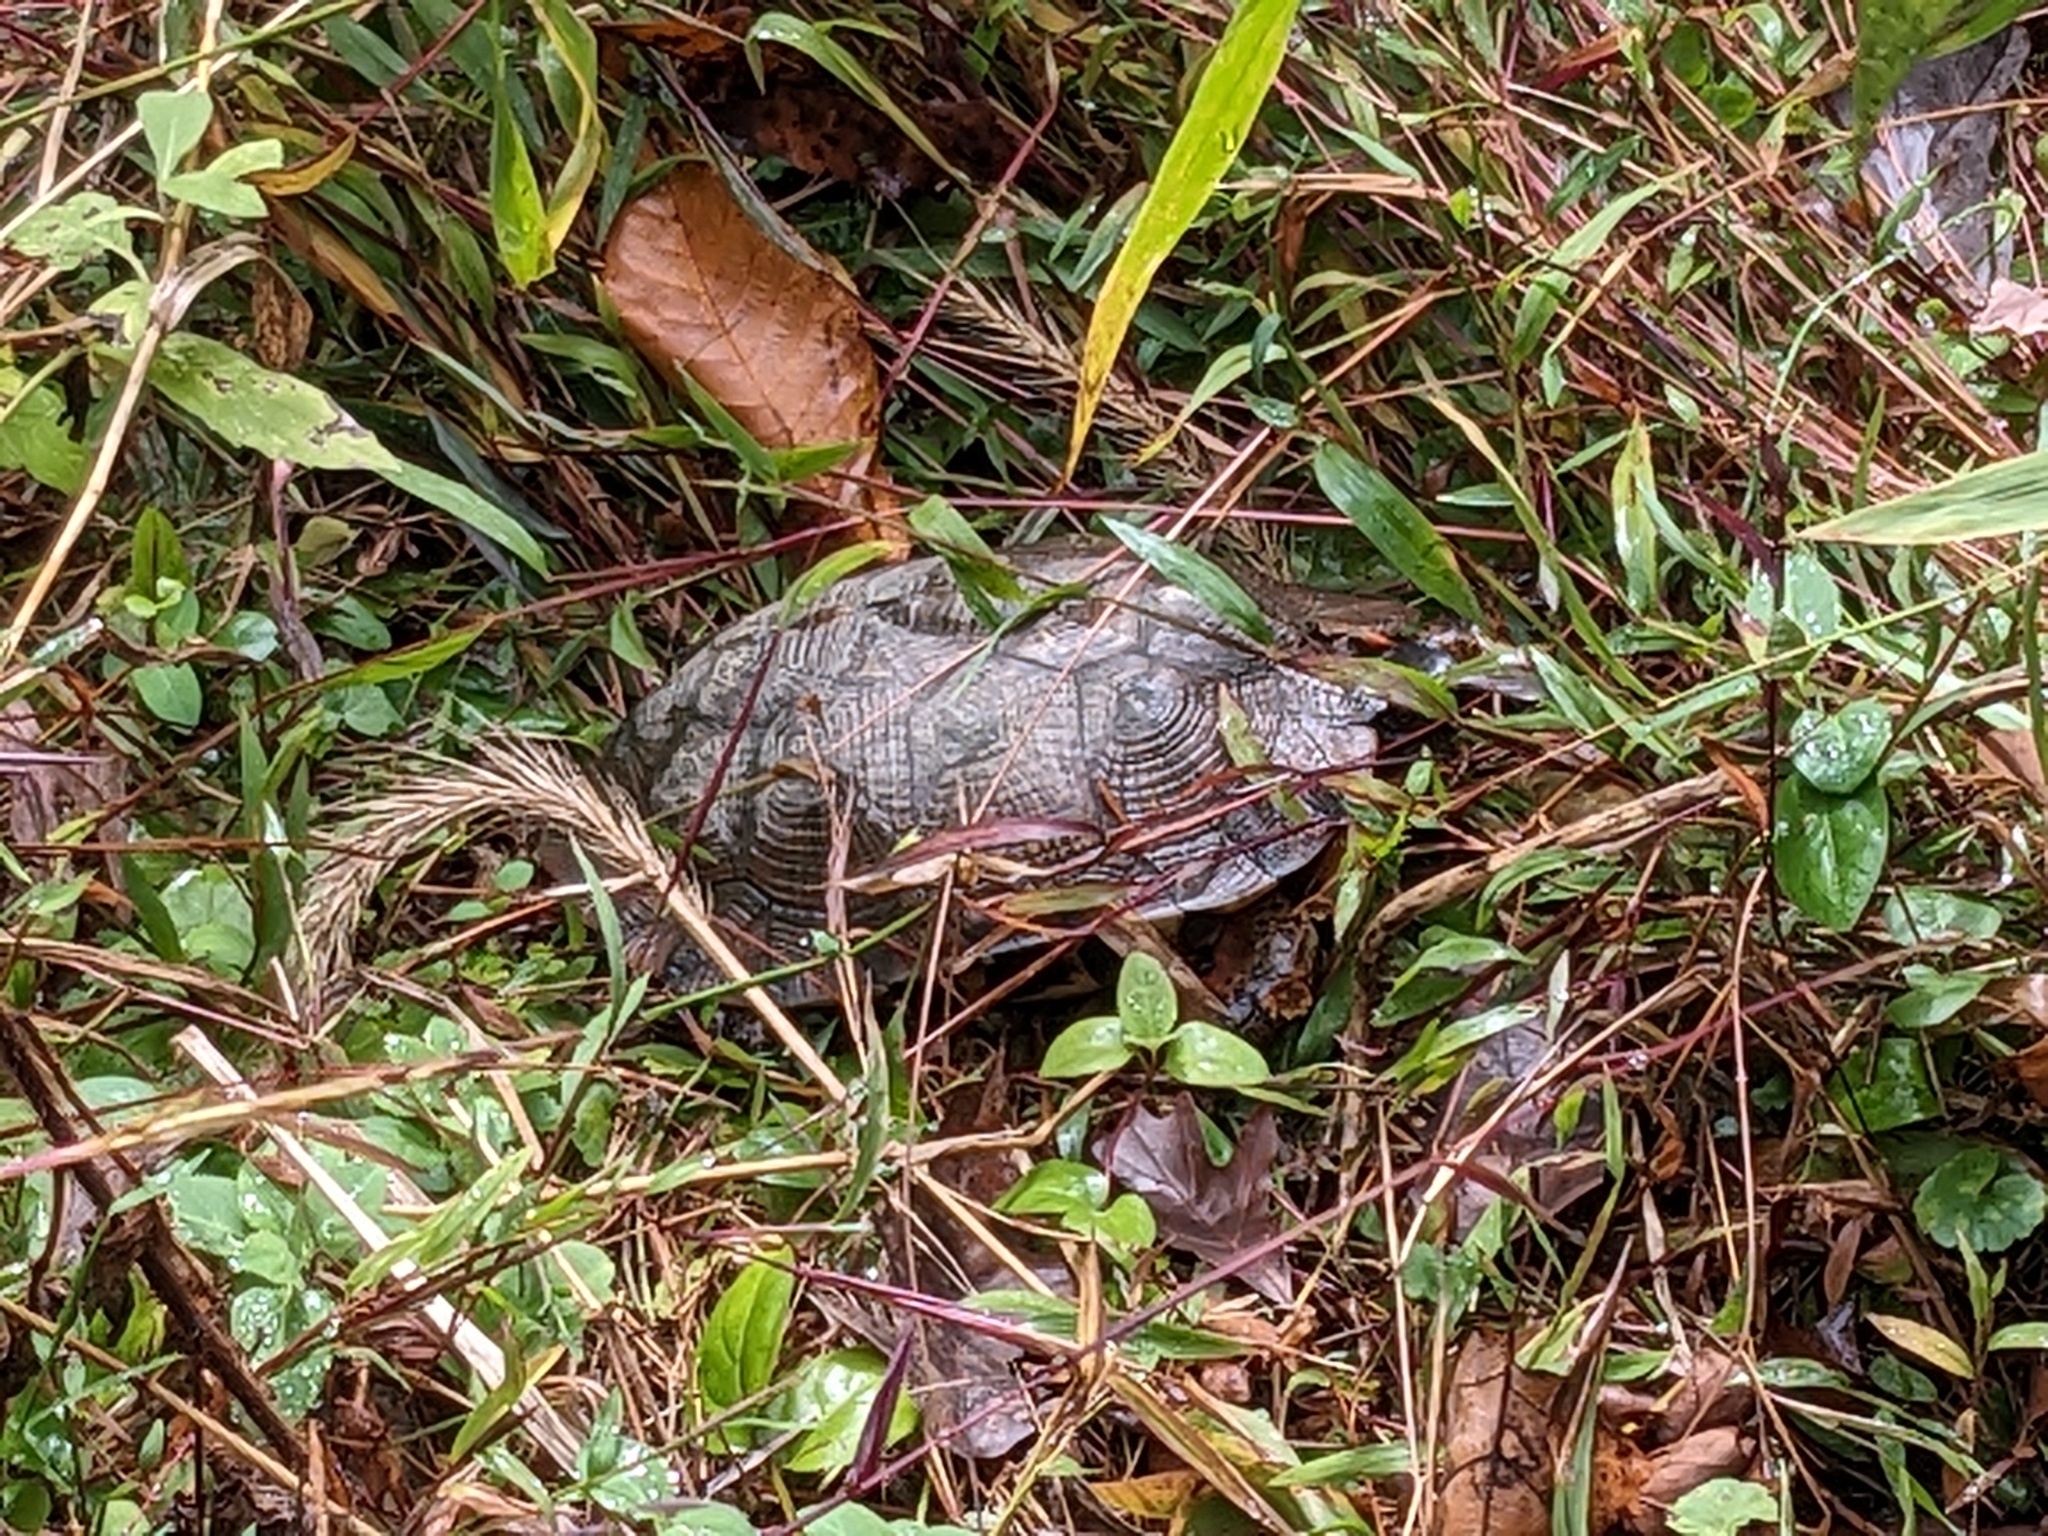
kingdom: Animalia
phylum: Chordata
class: Testudines
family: Emydidae
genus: Glyptemys
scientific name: Glyptemys insculpta
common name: Wood turtle
